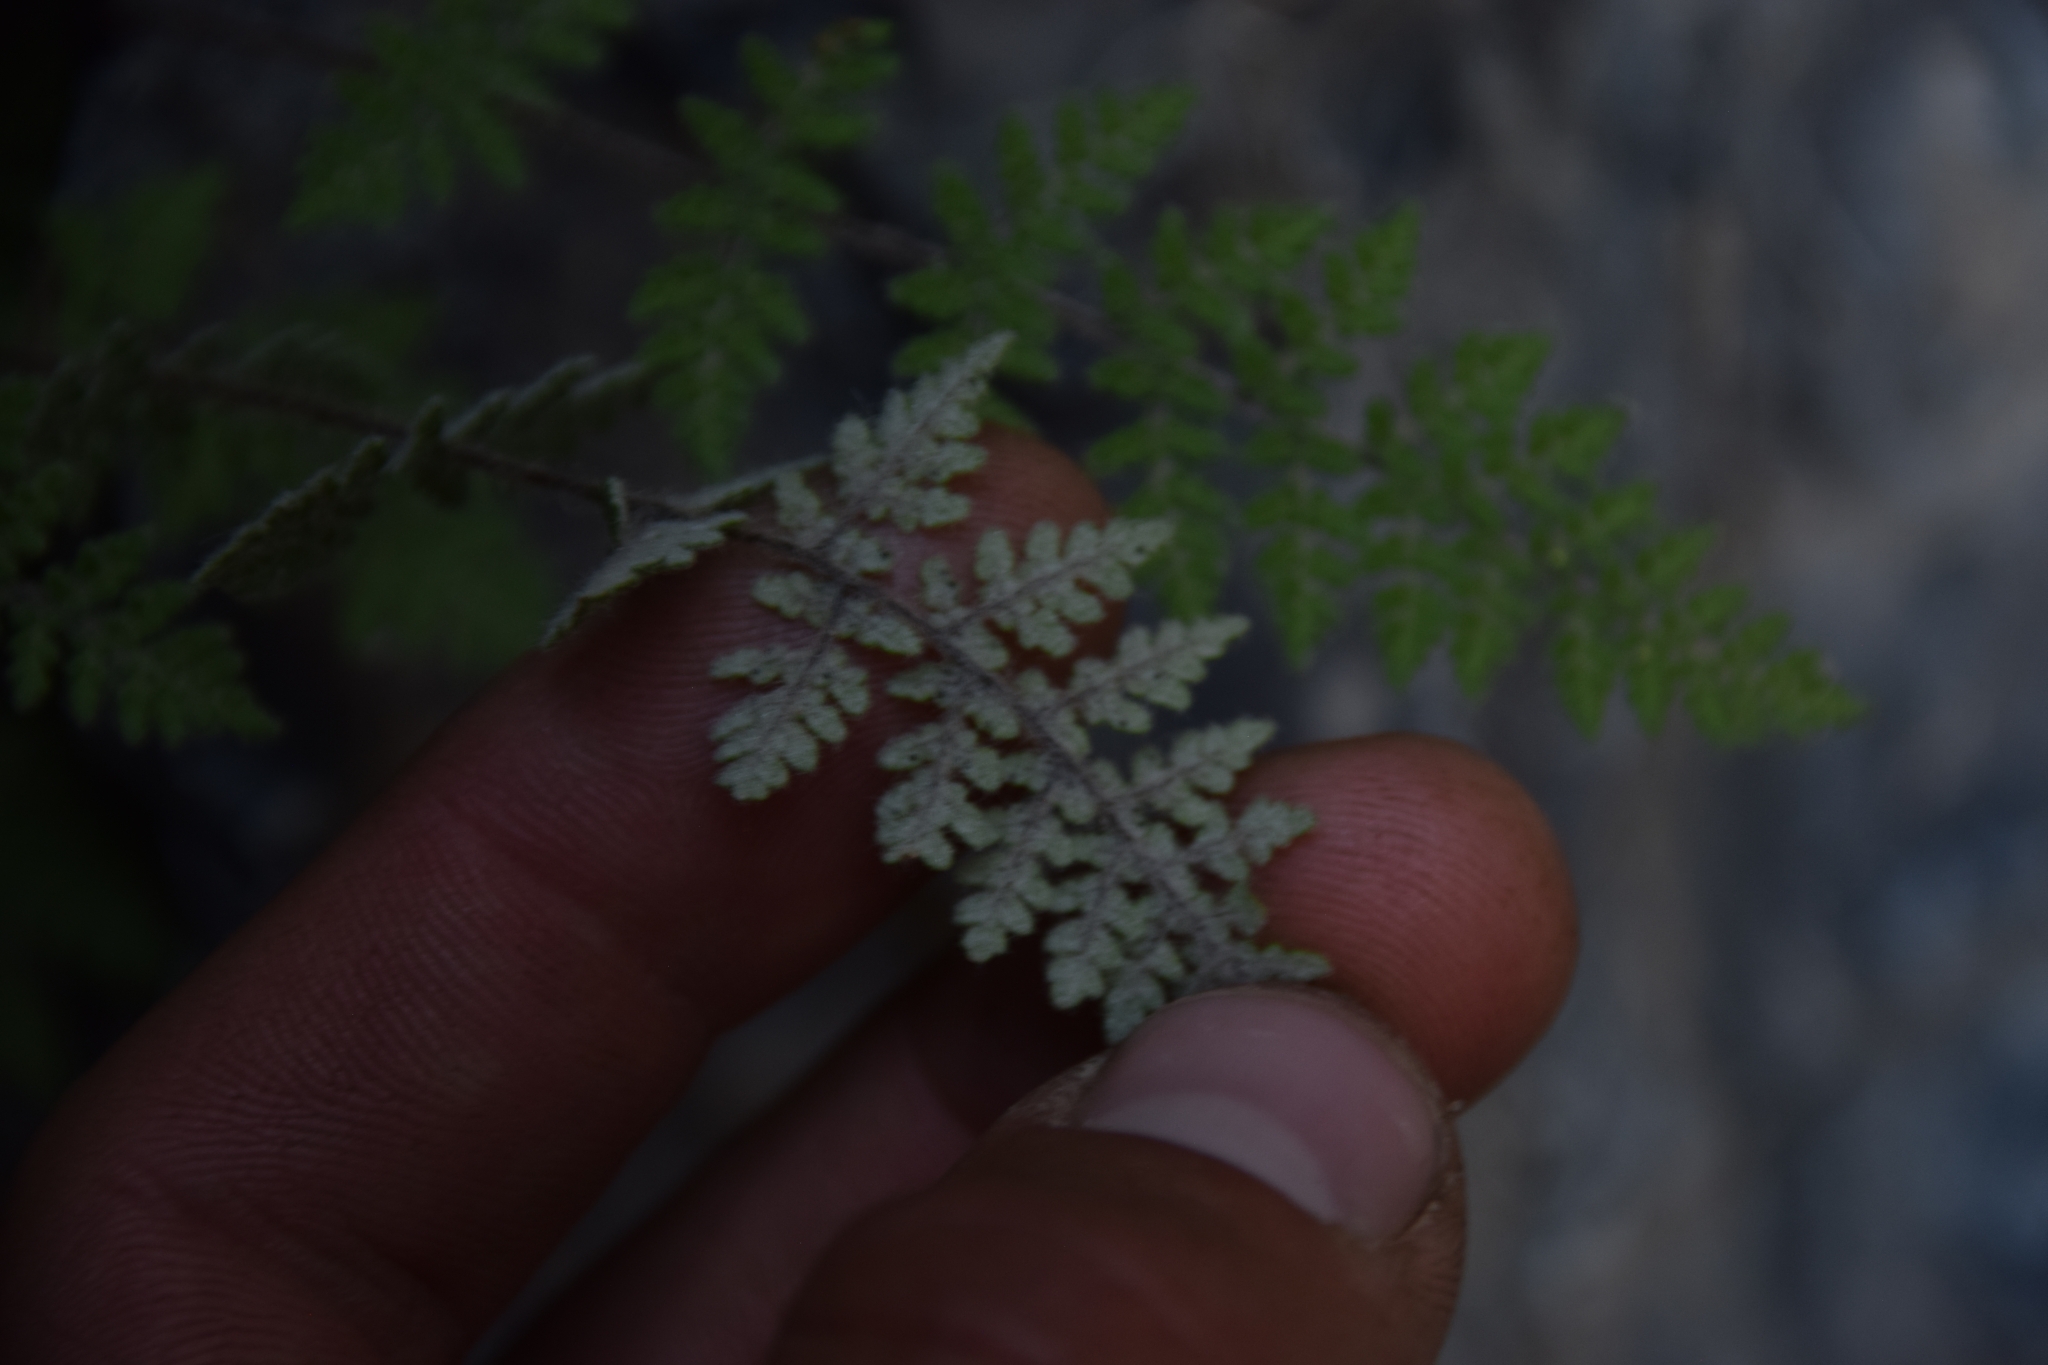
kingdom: Plantae
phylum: Tracheophyta
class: Polypodiopsida
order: Polypodiales
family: Pteridaceae
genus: Myriopteris
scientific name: Myriopteris gracilis
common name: Fee's lip fern
